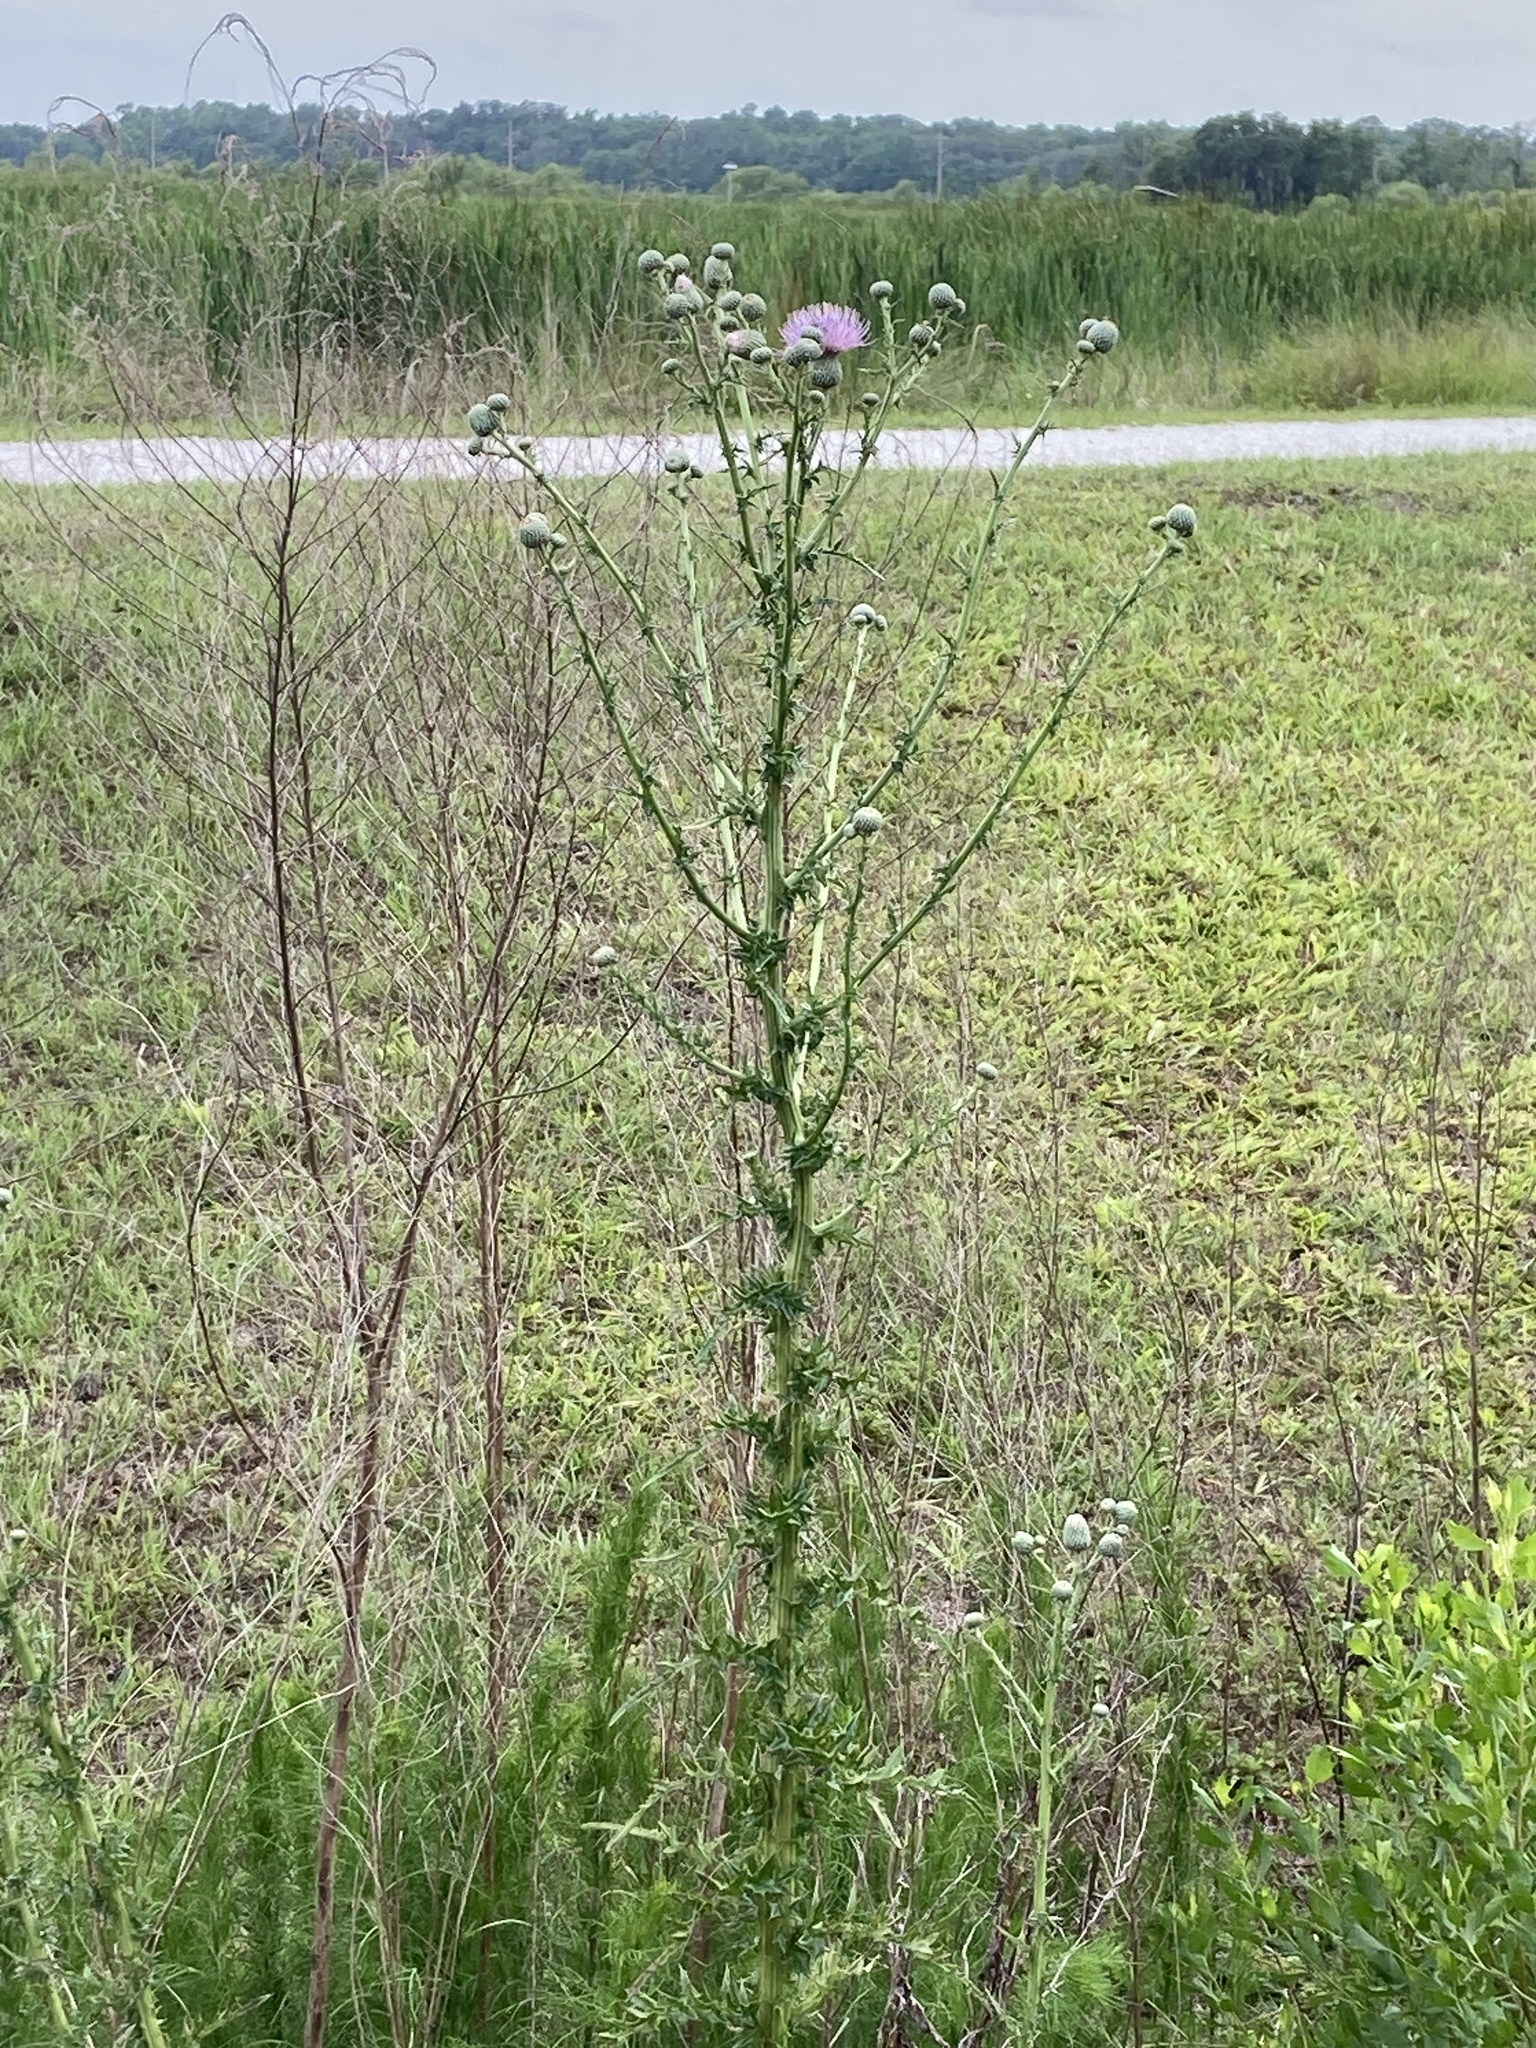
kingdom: Plantae
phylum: Tracheophyta
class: Magnoliopsida
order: Asterales
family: Asteraceae
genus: Cirsium
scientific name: Cirsium nuttalii
